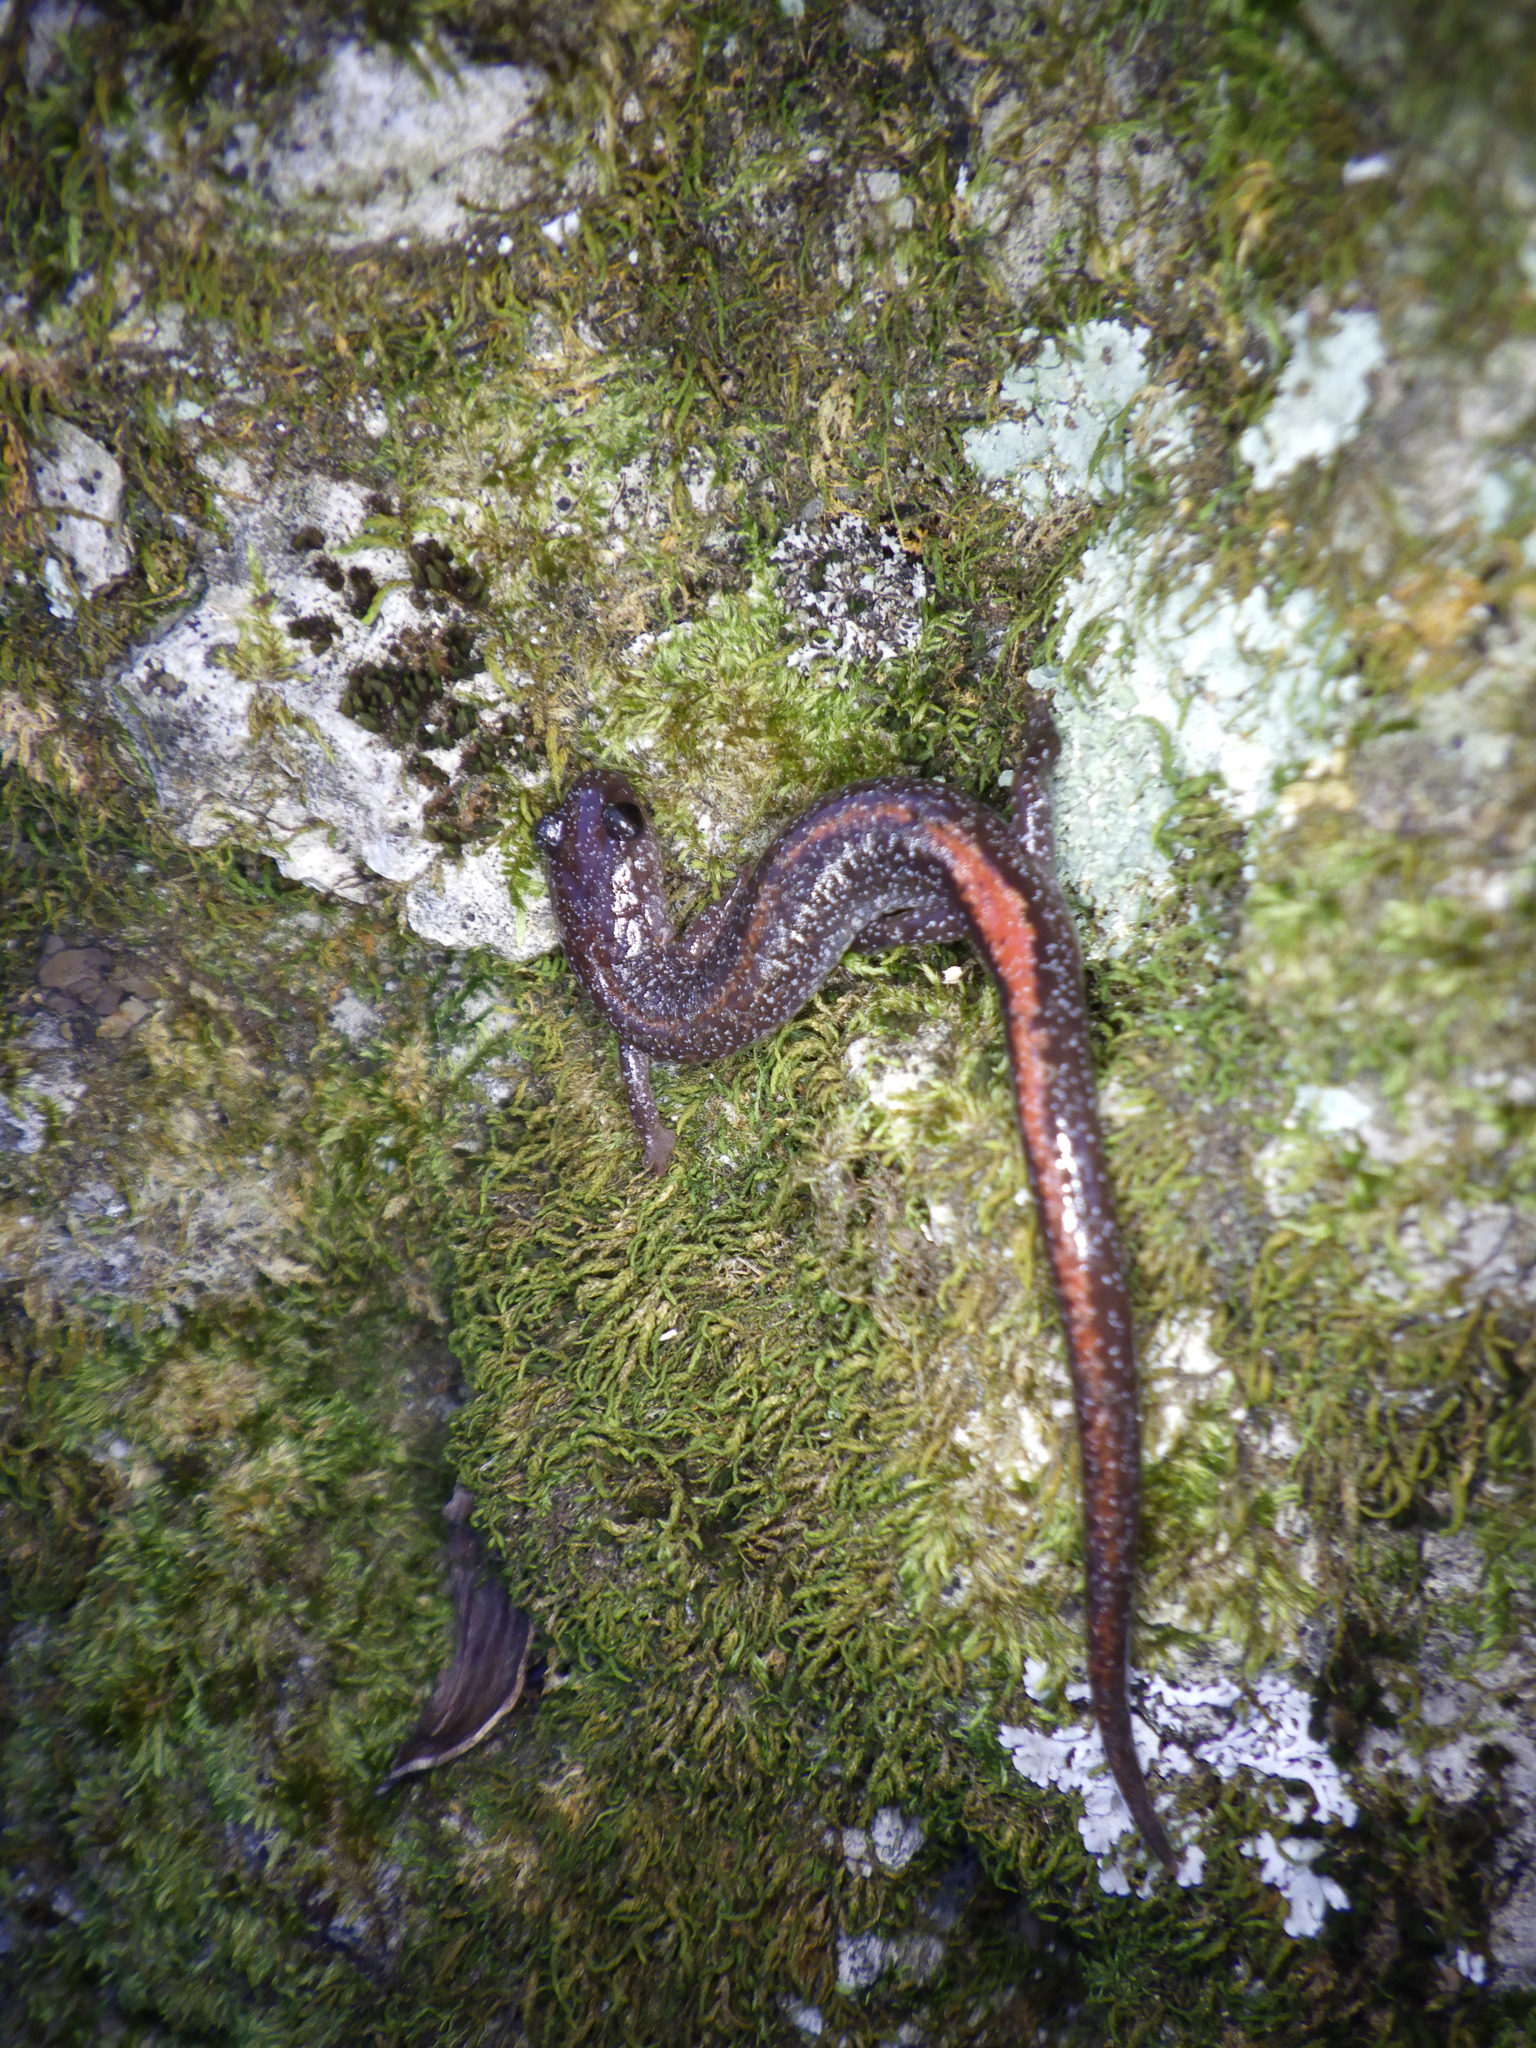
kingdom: Animalia
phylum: Chordata
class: Amphibia
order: Caudata
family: Plethodontidae
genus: Plethodon
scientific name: Plethodon angusticlavius
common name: Ozark zigzag salamander
